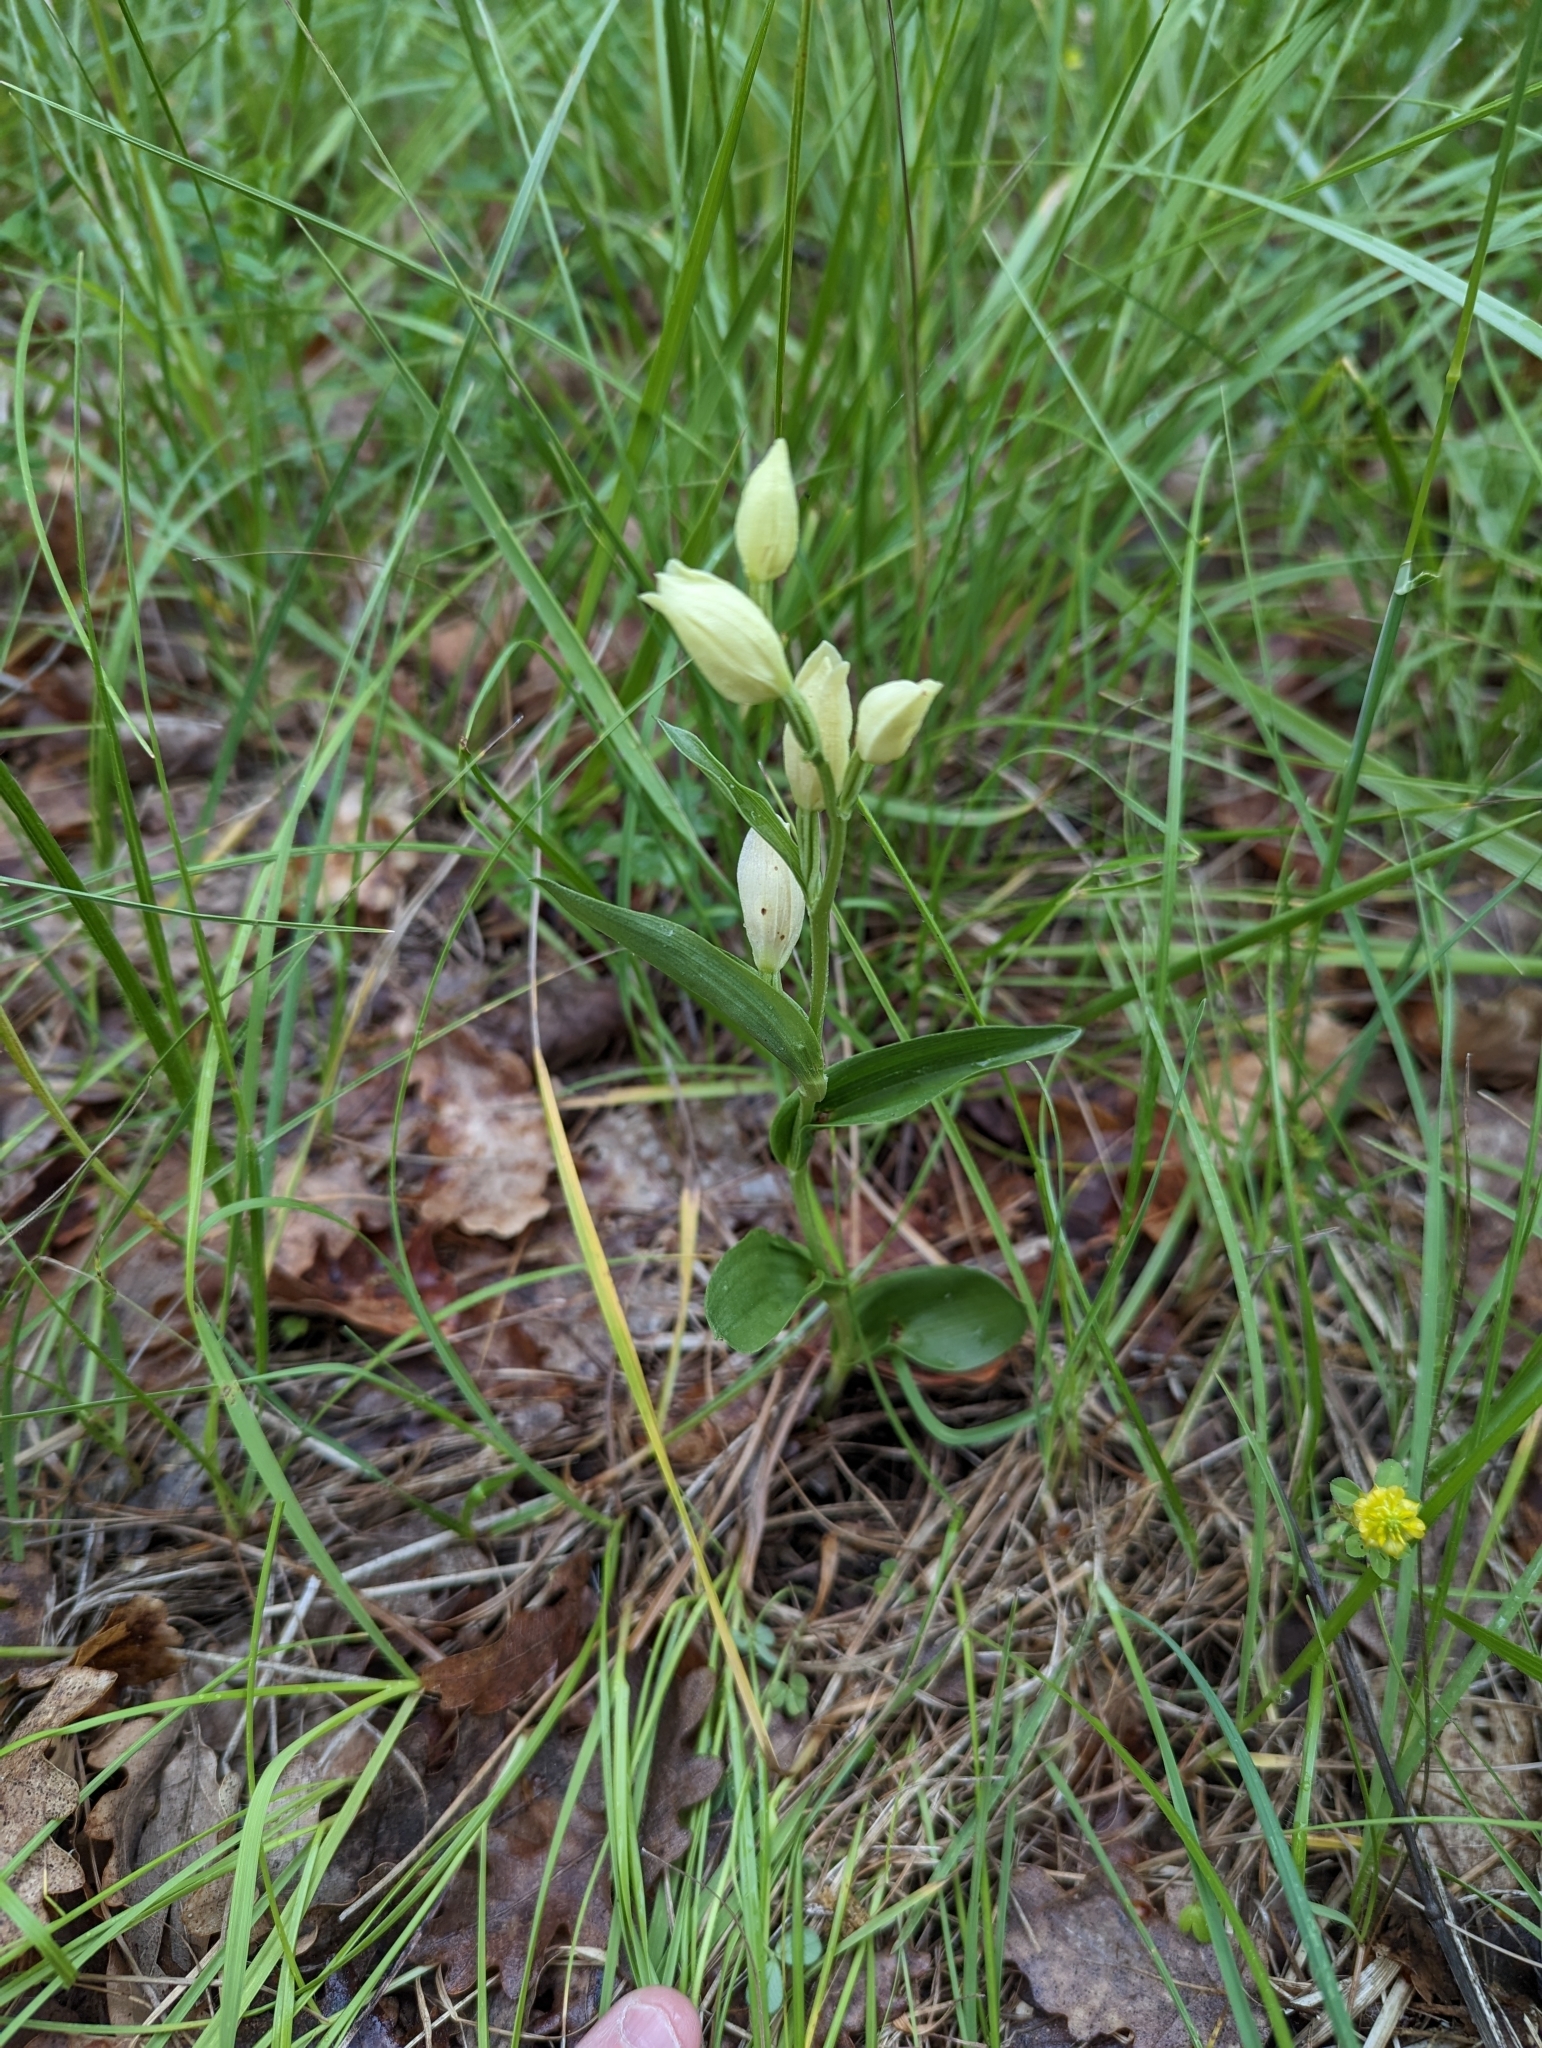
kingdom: Plantae
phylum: Tracheophyta
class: Liliopsida
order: Asparagales
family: Orchidaceae
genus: Cephalanthera
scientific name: Cephalanthera damasonium
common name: White helleborine
